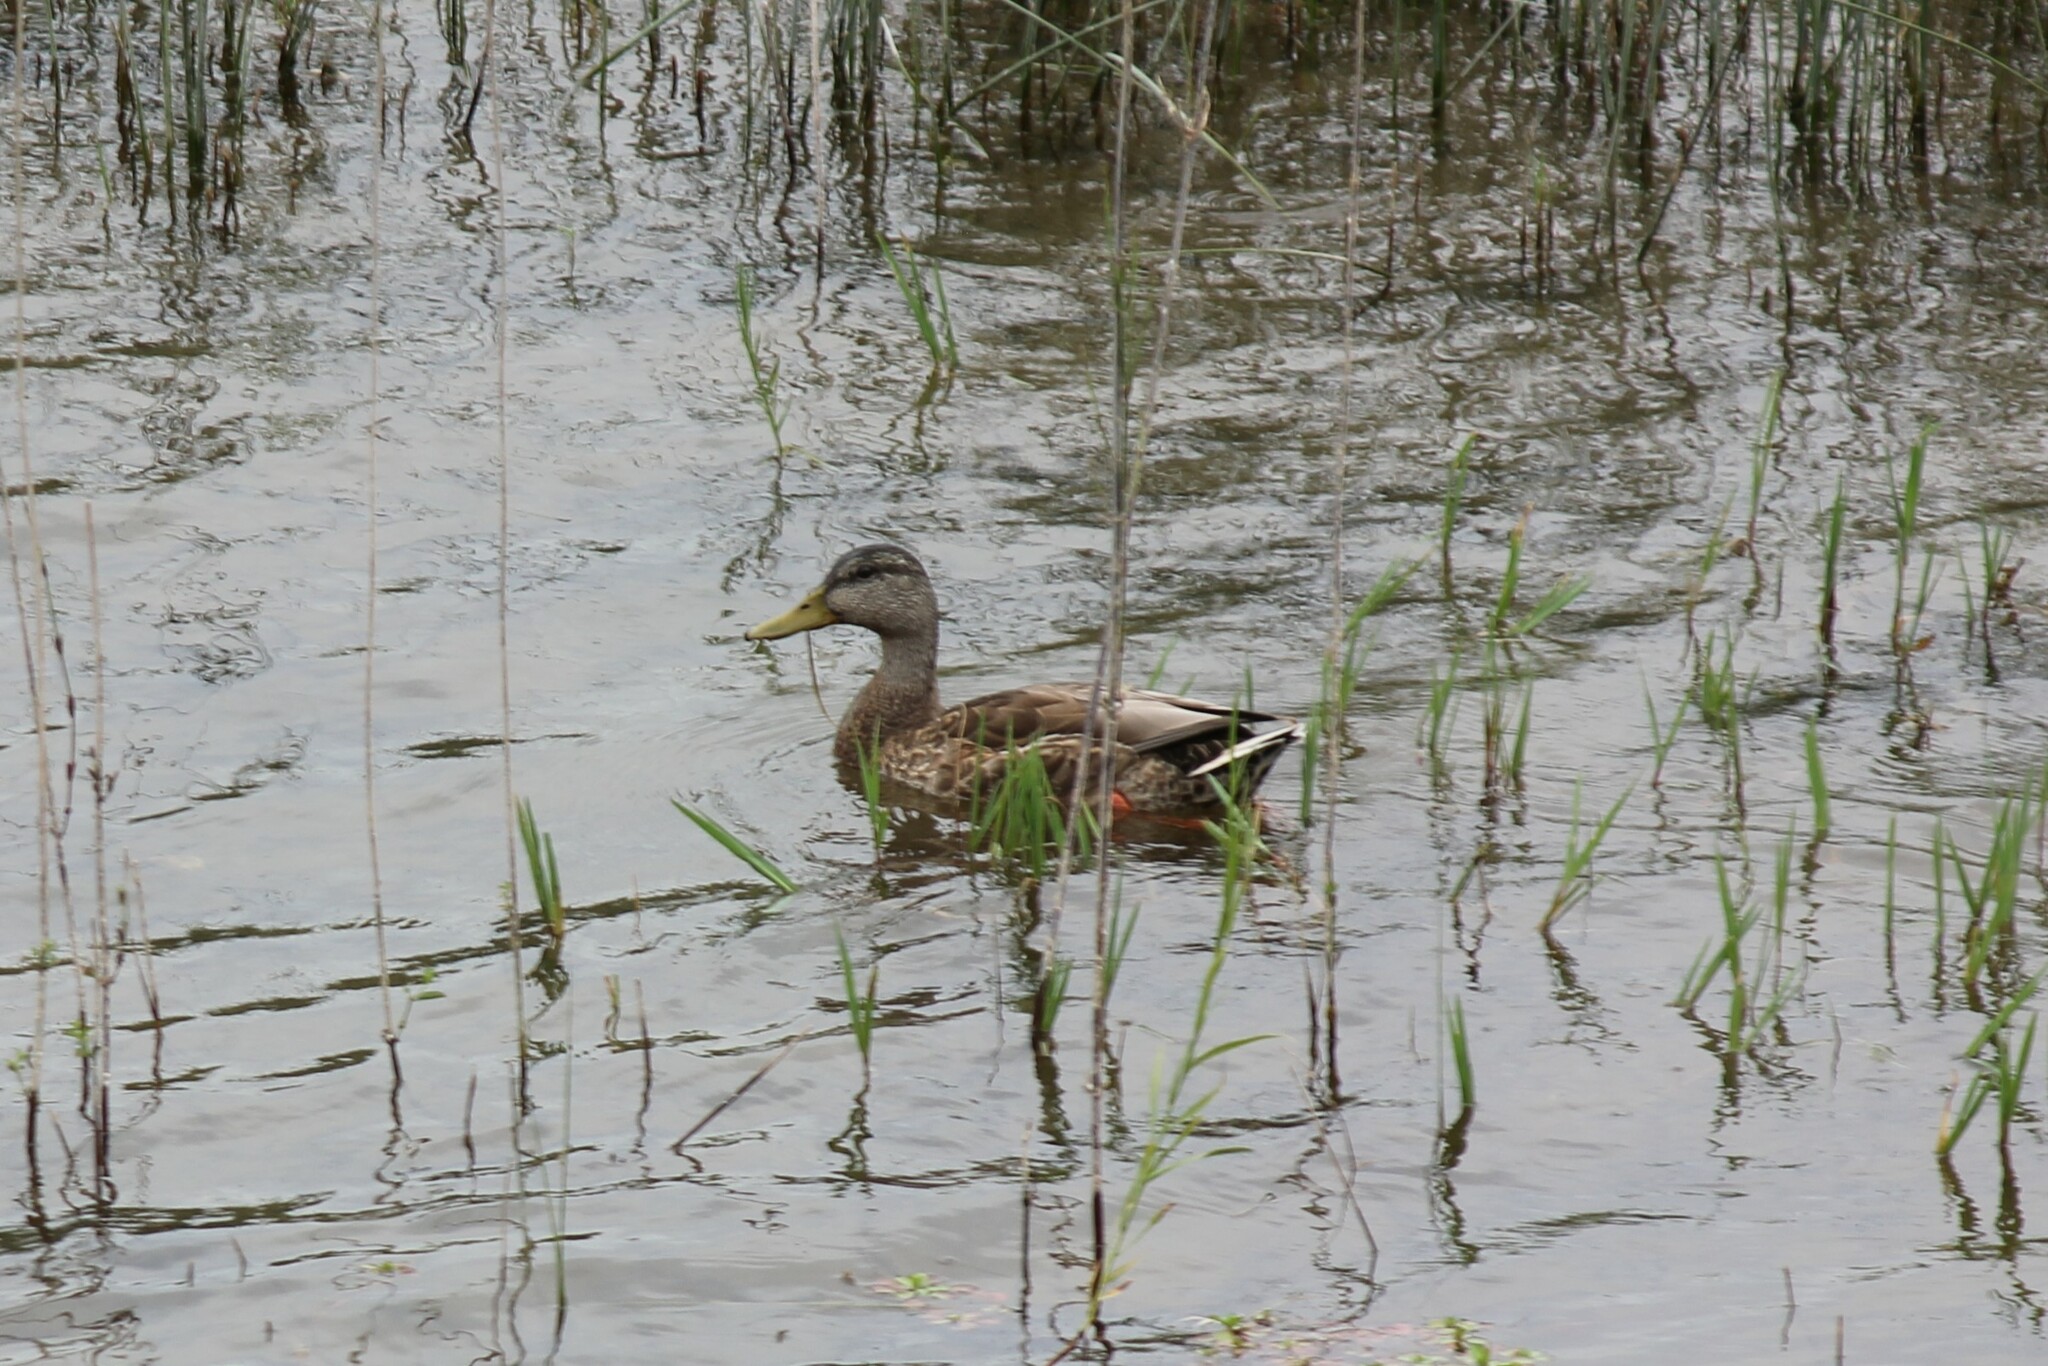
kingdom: Animalia
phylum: Chordata
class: Aves
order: Anseriformes
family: Anatidae
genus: Anas
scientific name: Anas platyrhynchos
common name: Mallard
